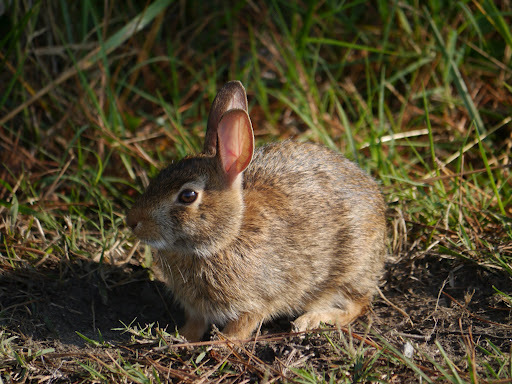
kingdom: Animalia
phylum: Chordata
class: Mammalia
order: Lagomorpha
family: Leporidae
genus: Sylvilagus
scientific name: Sylvilagus floridanus
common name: Eastern cottontail
